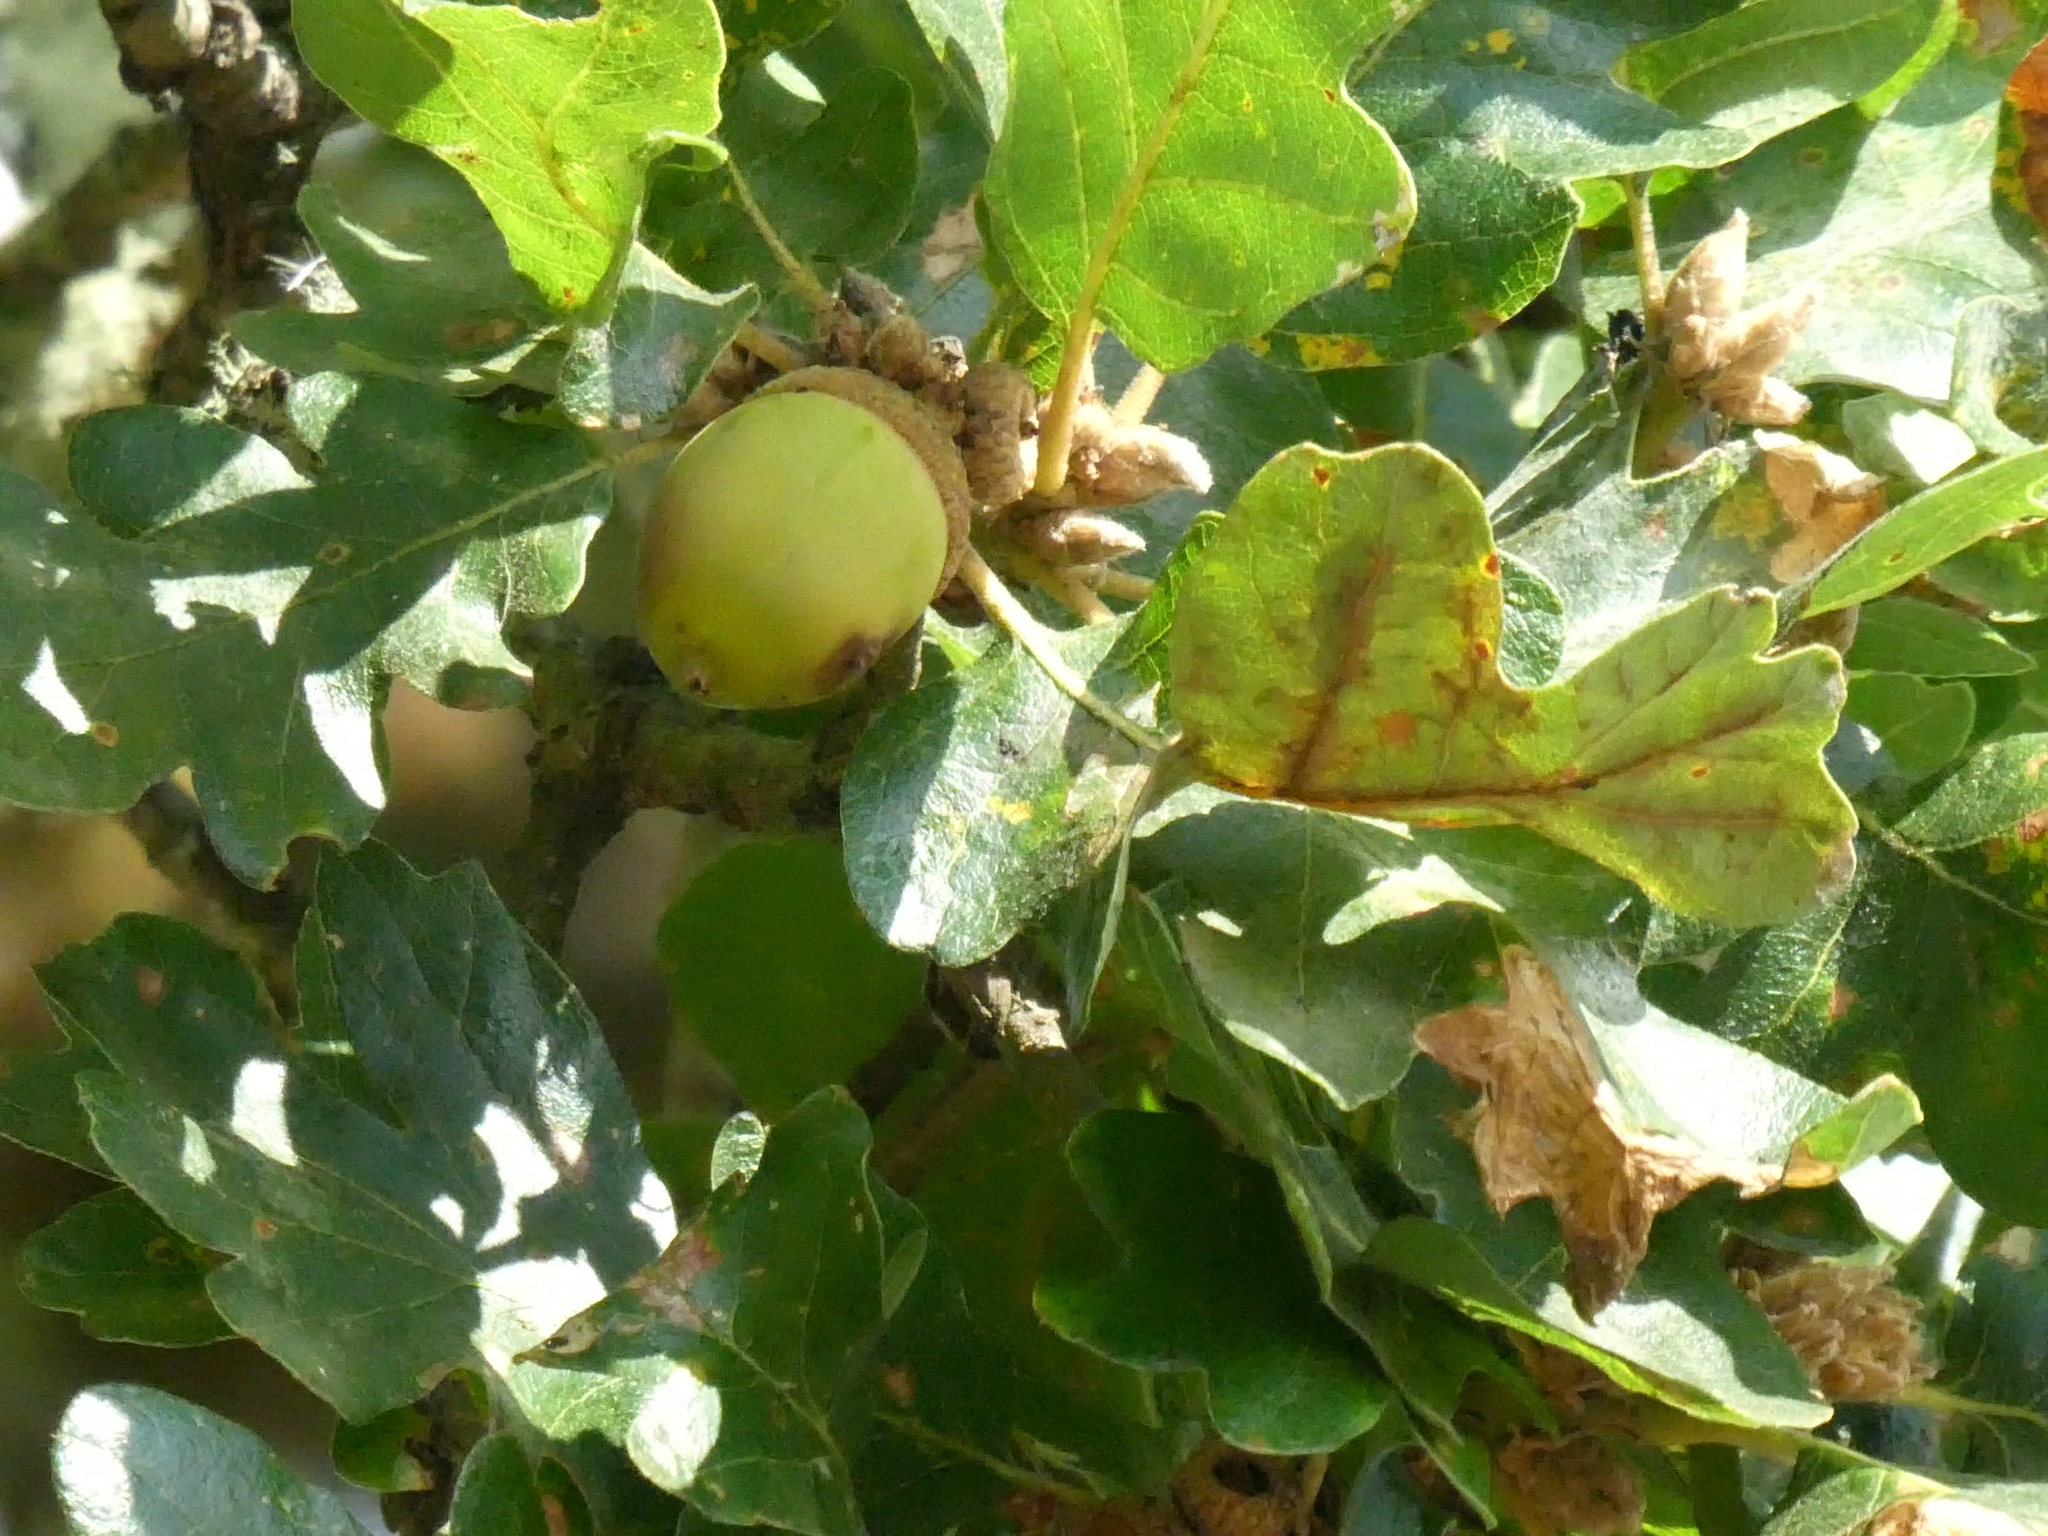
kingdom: Plantae
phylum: Tracheophyta
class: Magnoliopsida
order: Fagales
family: Fagaceae
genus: Quercus
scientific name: Quercus garryana
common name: Garry oak
